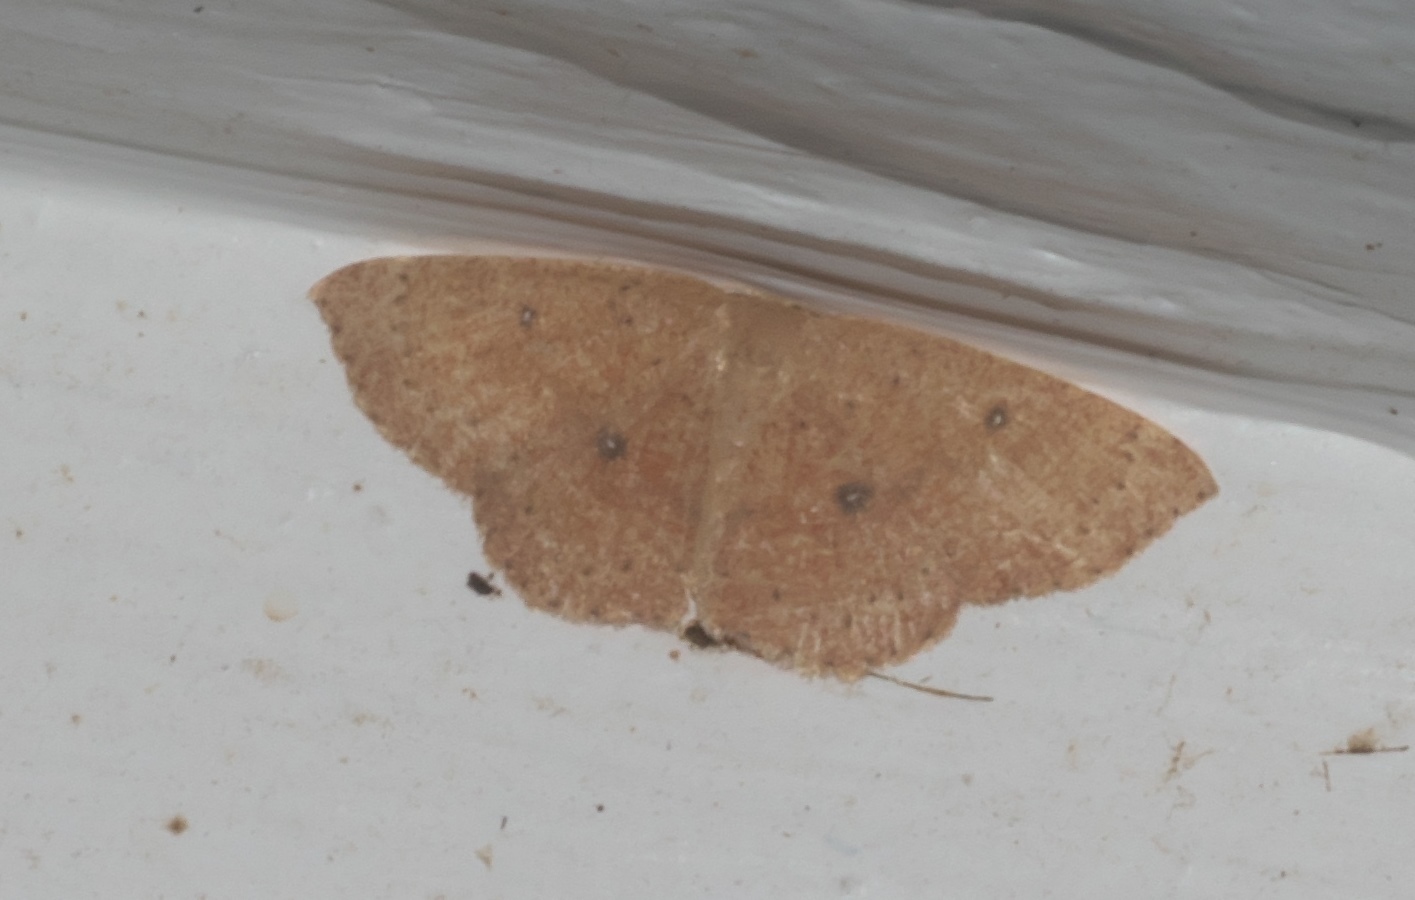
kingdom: Animalia
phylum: Arthropoda
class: Insecta
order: Lepidoptera
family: Geometridae
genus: Cyclophora
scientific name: Cyclophora packardi
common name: Packard's wave
